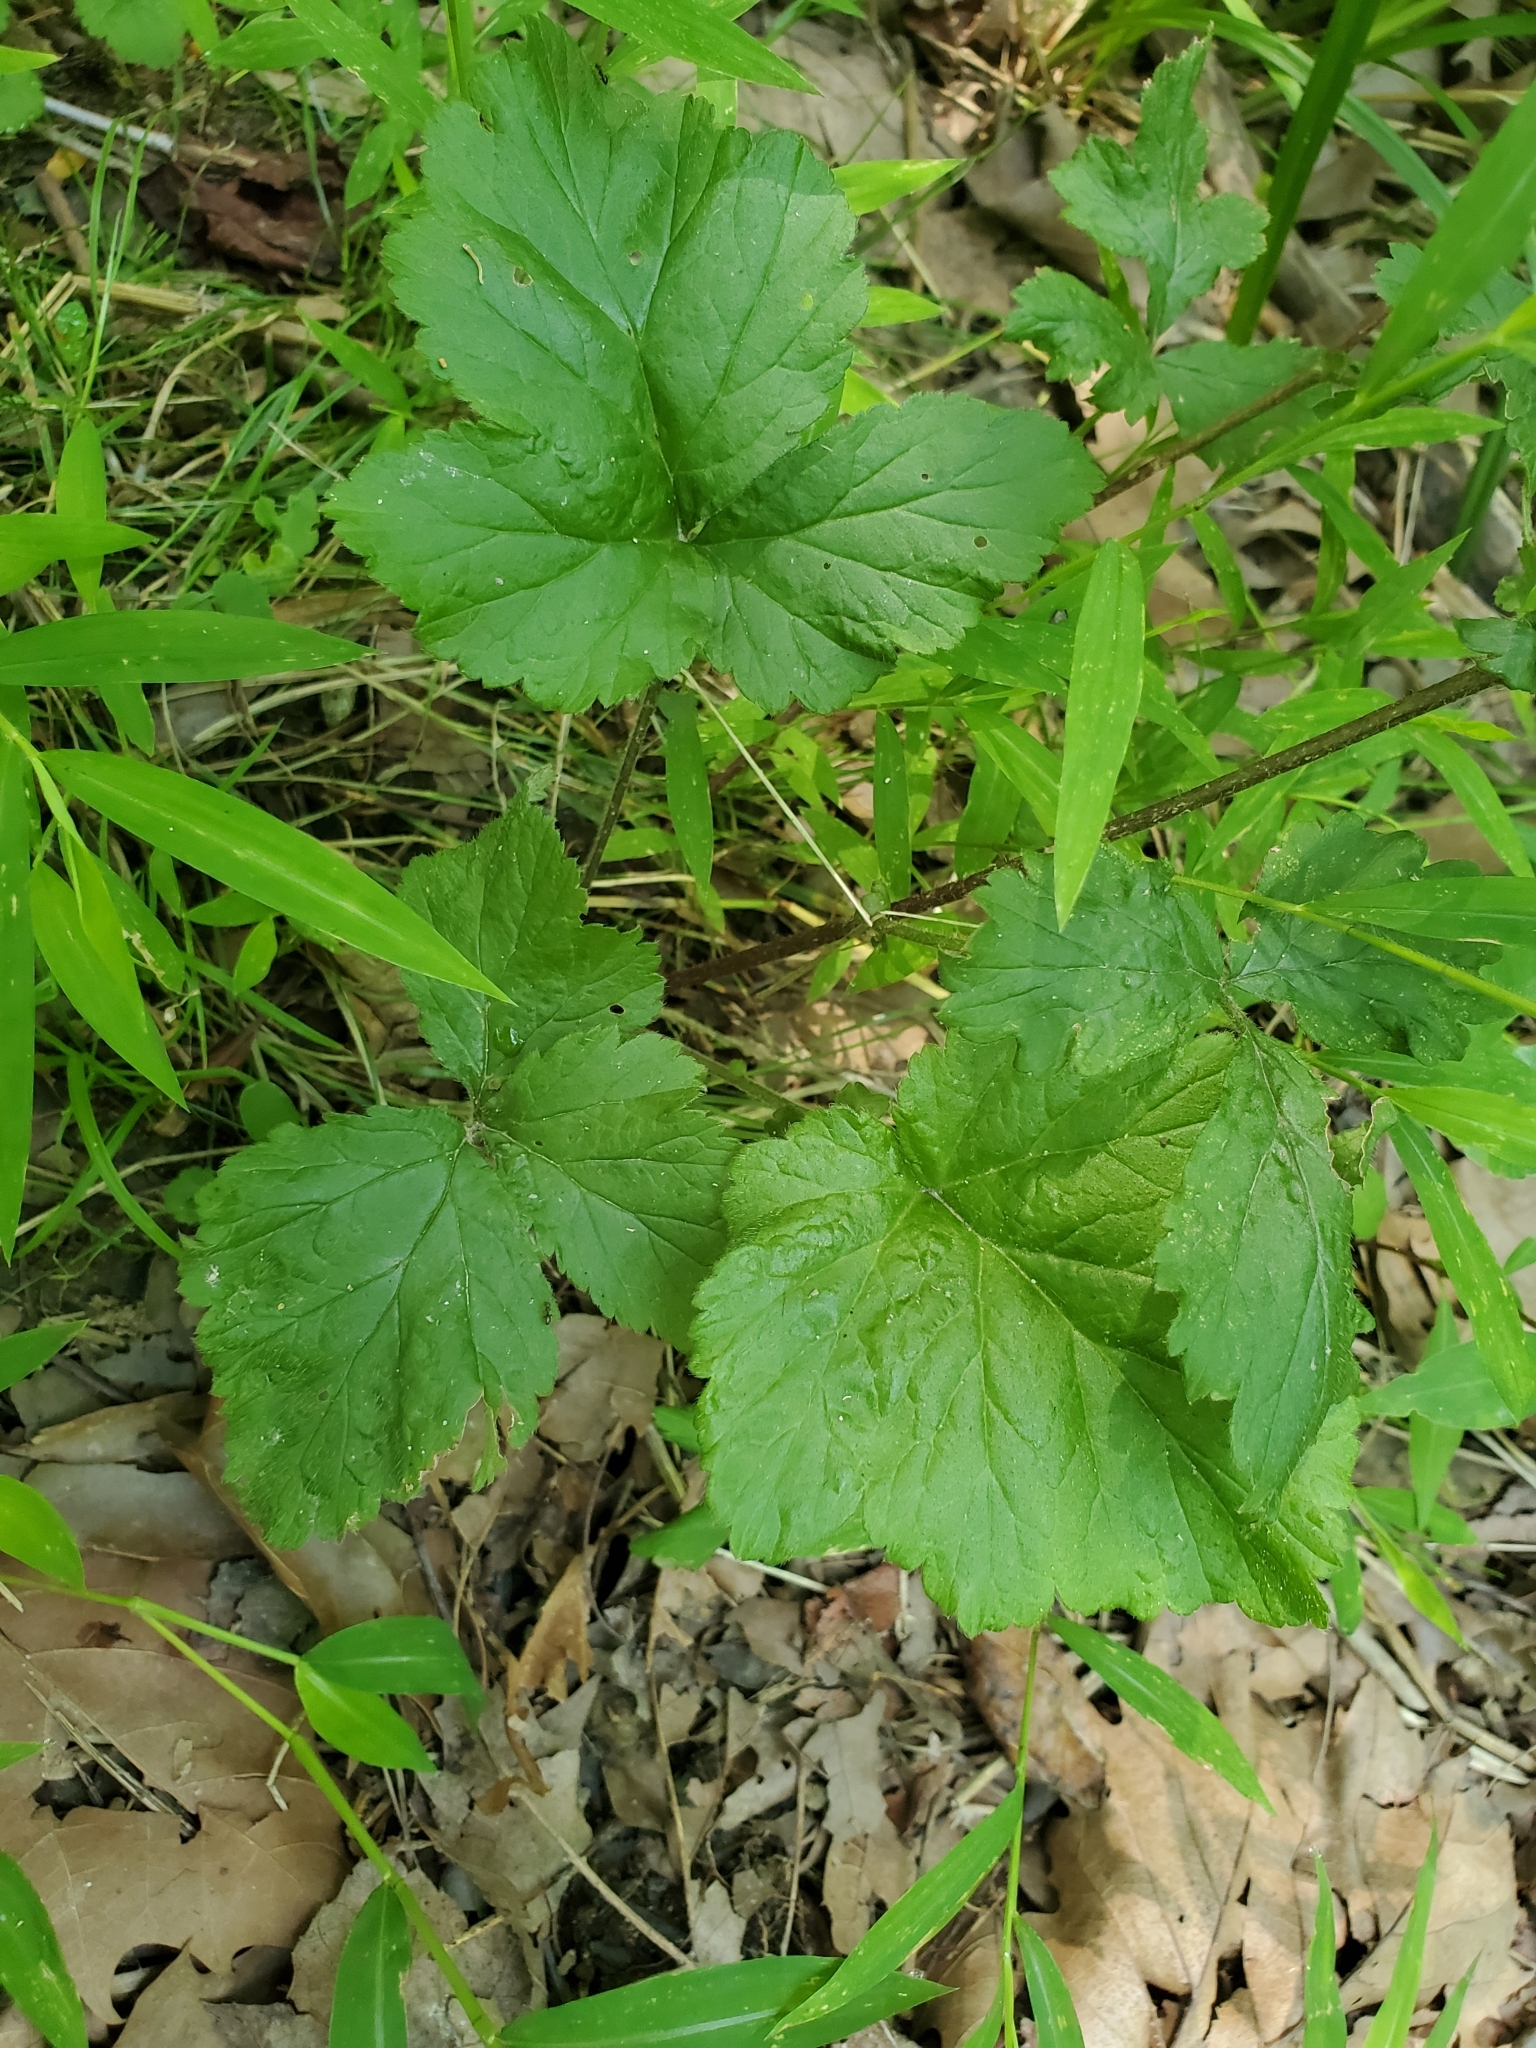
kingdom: Plantae
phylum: Tracheophyta
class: Magnoliopsida
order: Rosales
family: Rosaceae
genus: Geum
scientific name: Geum canadense
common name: White avens
